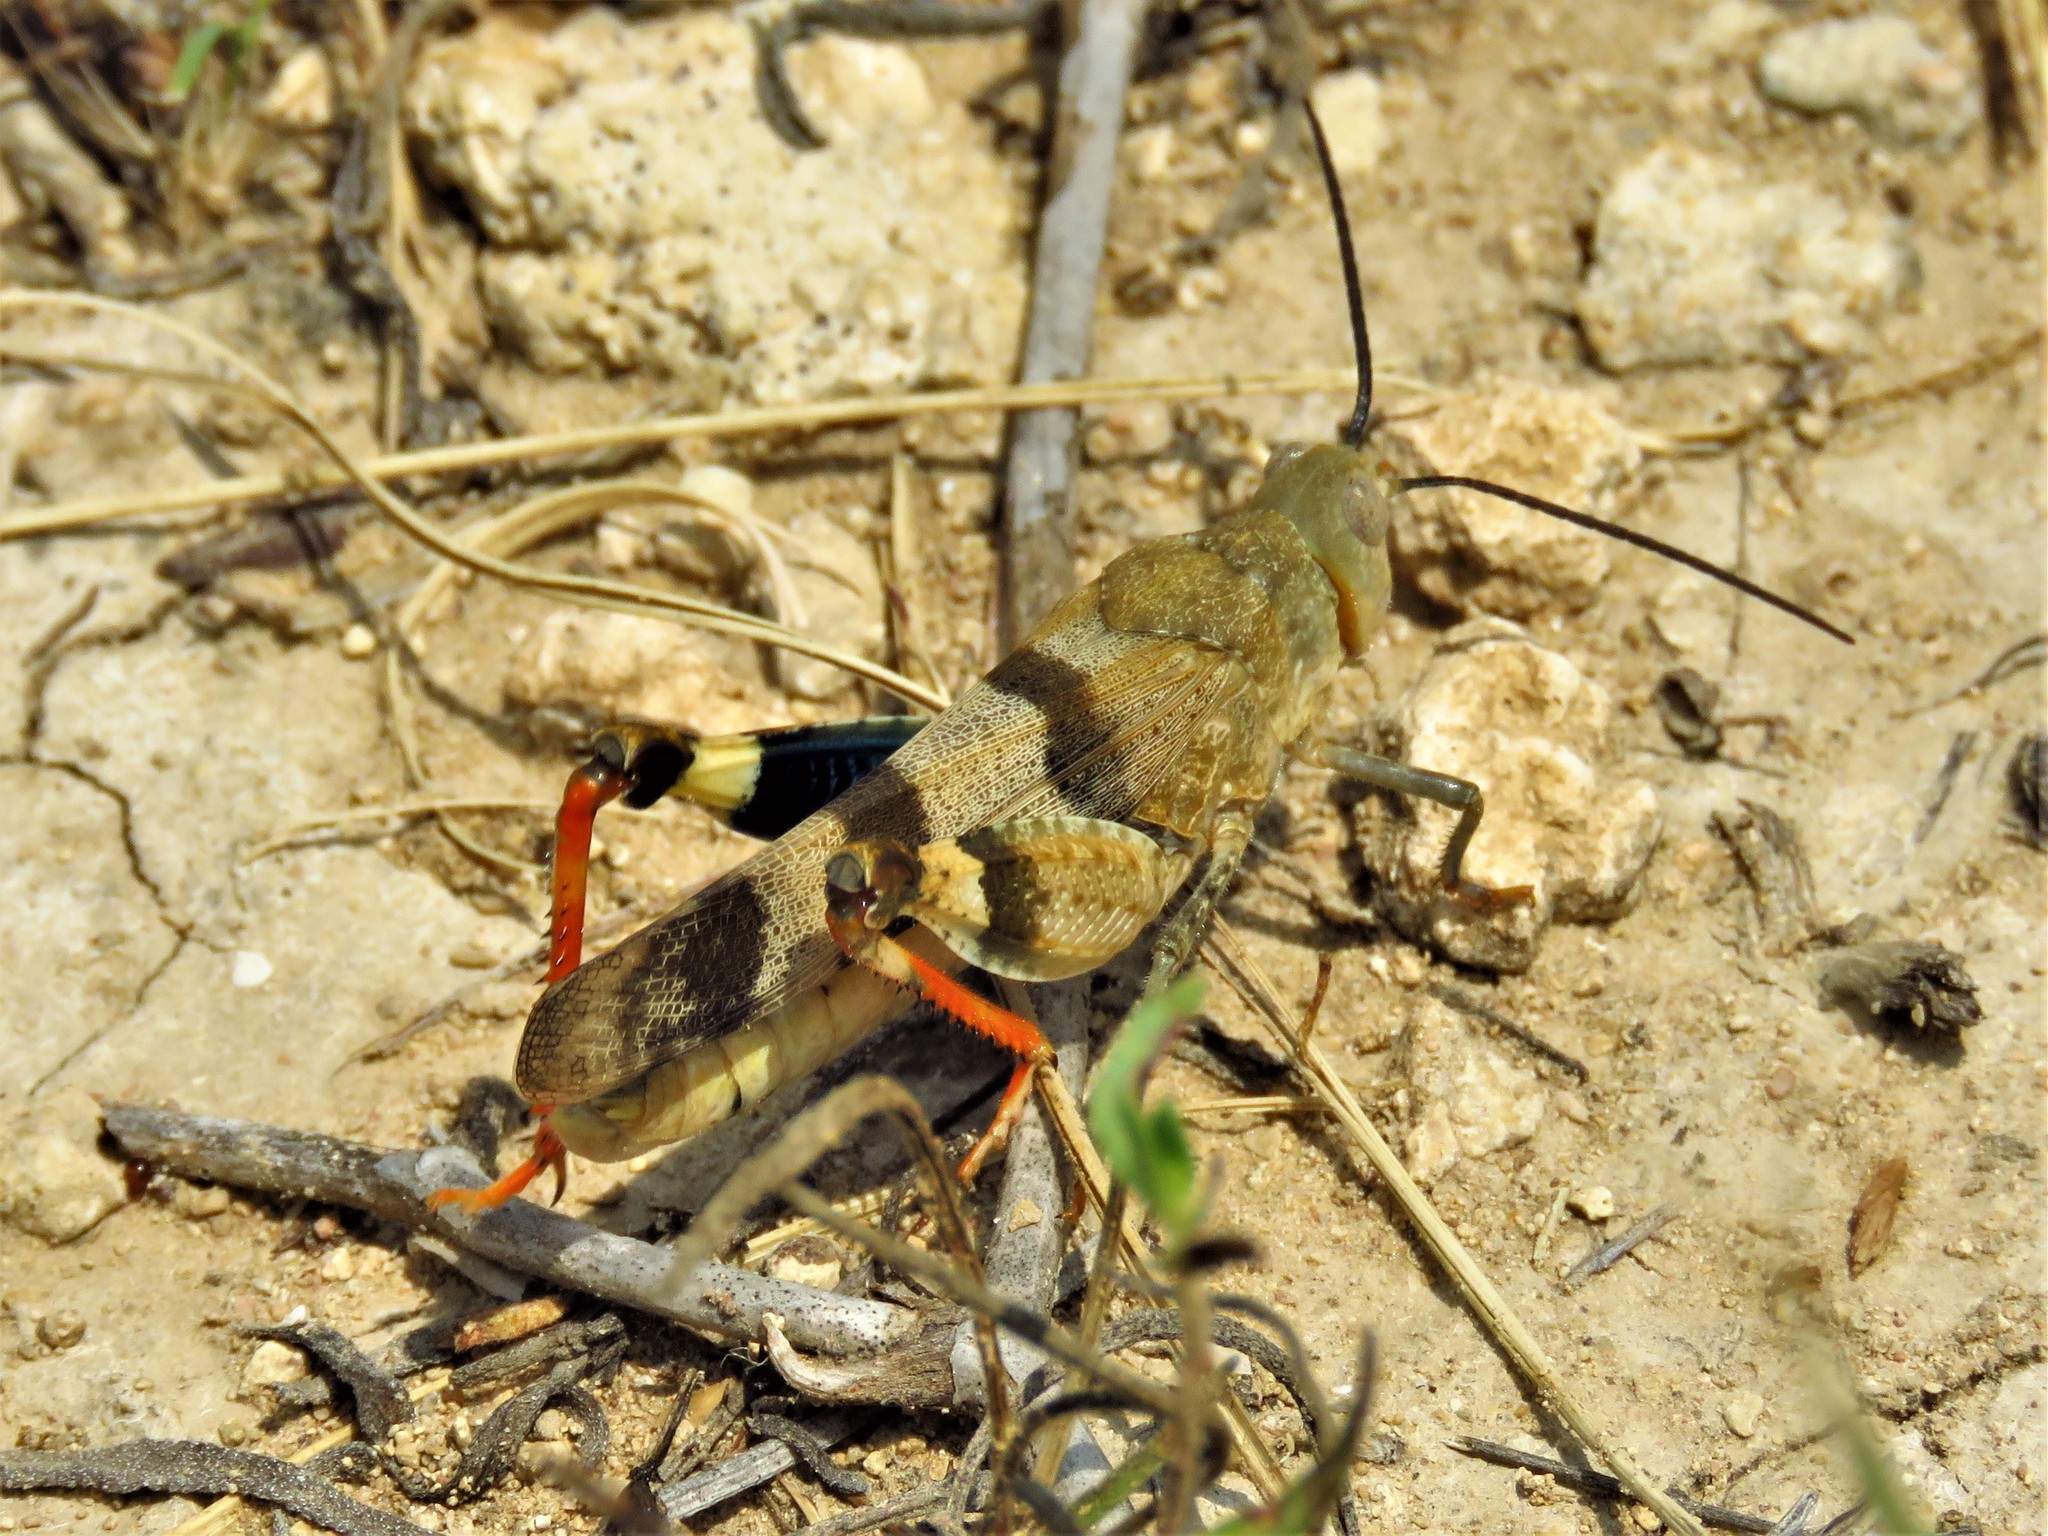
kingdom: Animalia
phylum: Arthropoda
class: Insecta
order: Orthoptera
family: Acrididae
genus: Hadrotettix
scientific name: Hadrotettix trifasciatus
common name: Threebanded grasshopper
